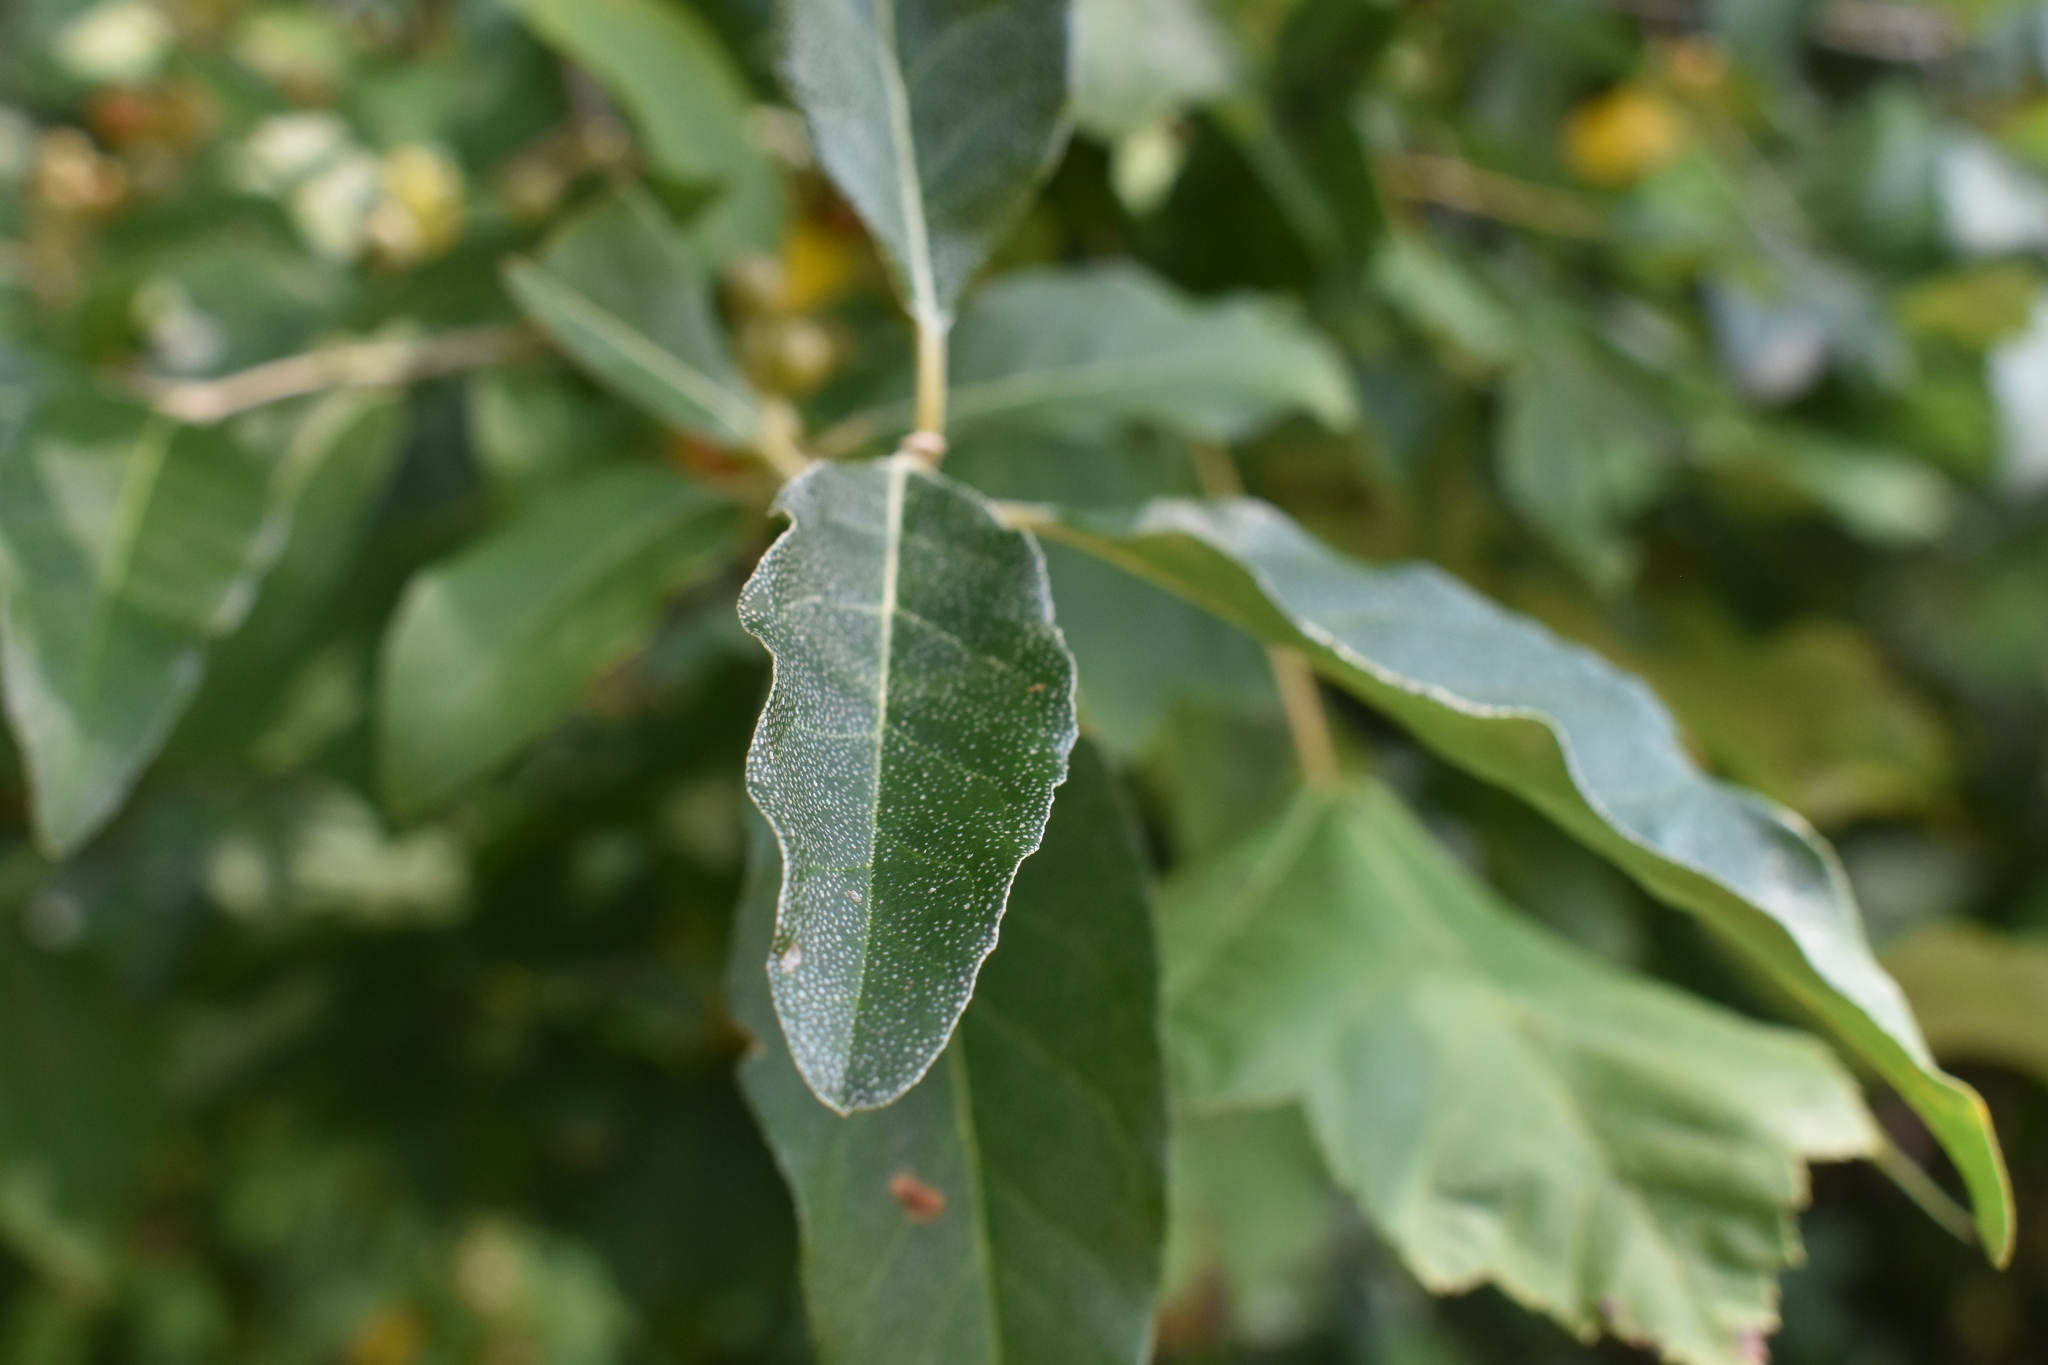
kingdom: Plantae
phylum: Tracheophyta
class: Magnoliopsida
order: Rosales
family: Elaeagnaceae
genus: Elaeagnus
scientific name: Elaeagnus umbellata
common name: Autumn olive
